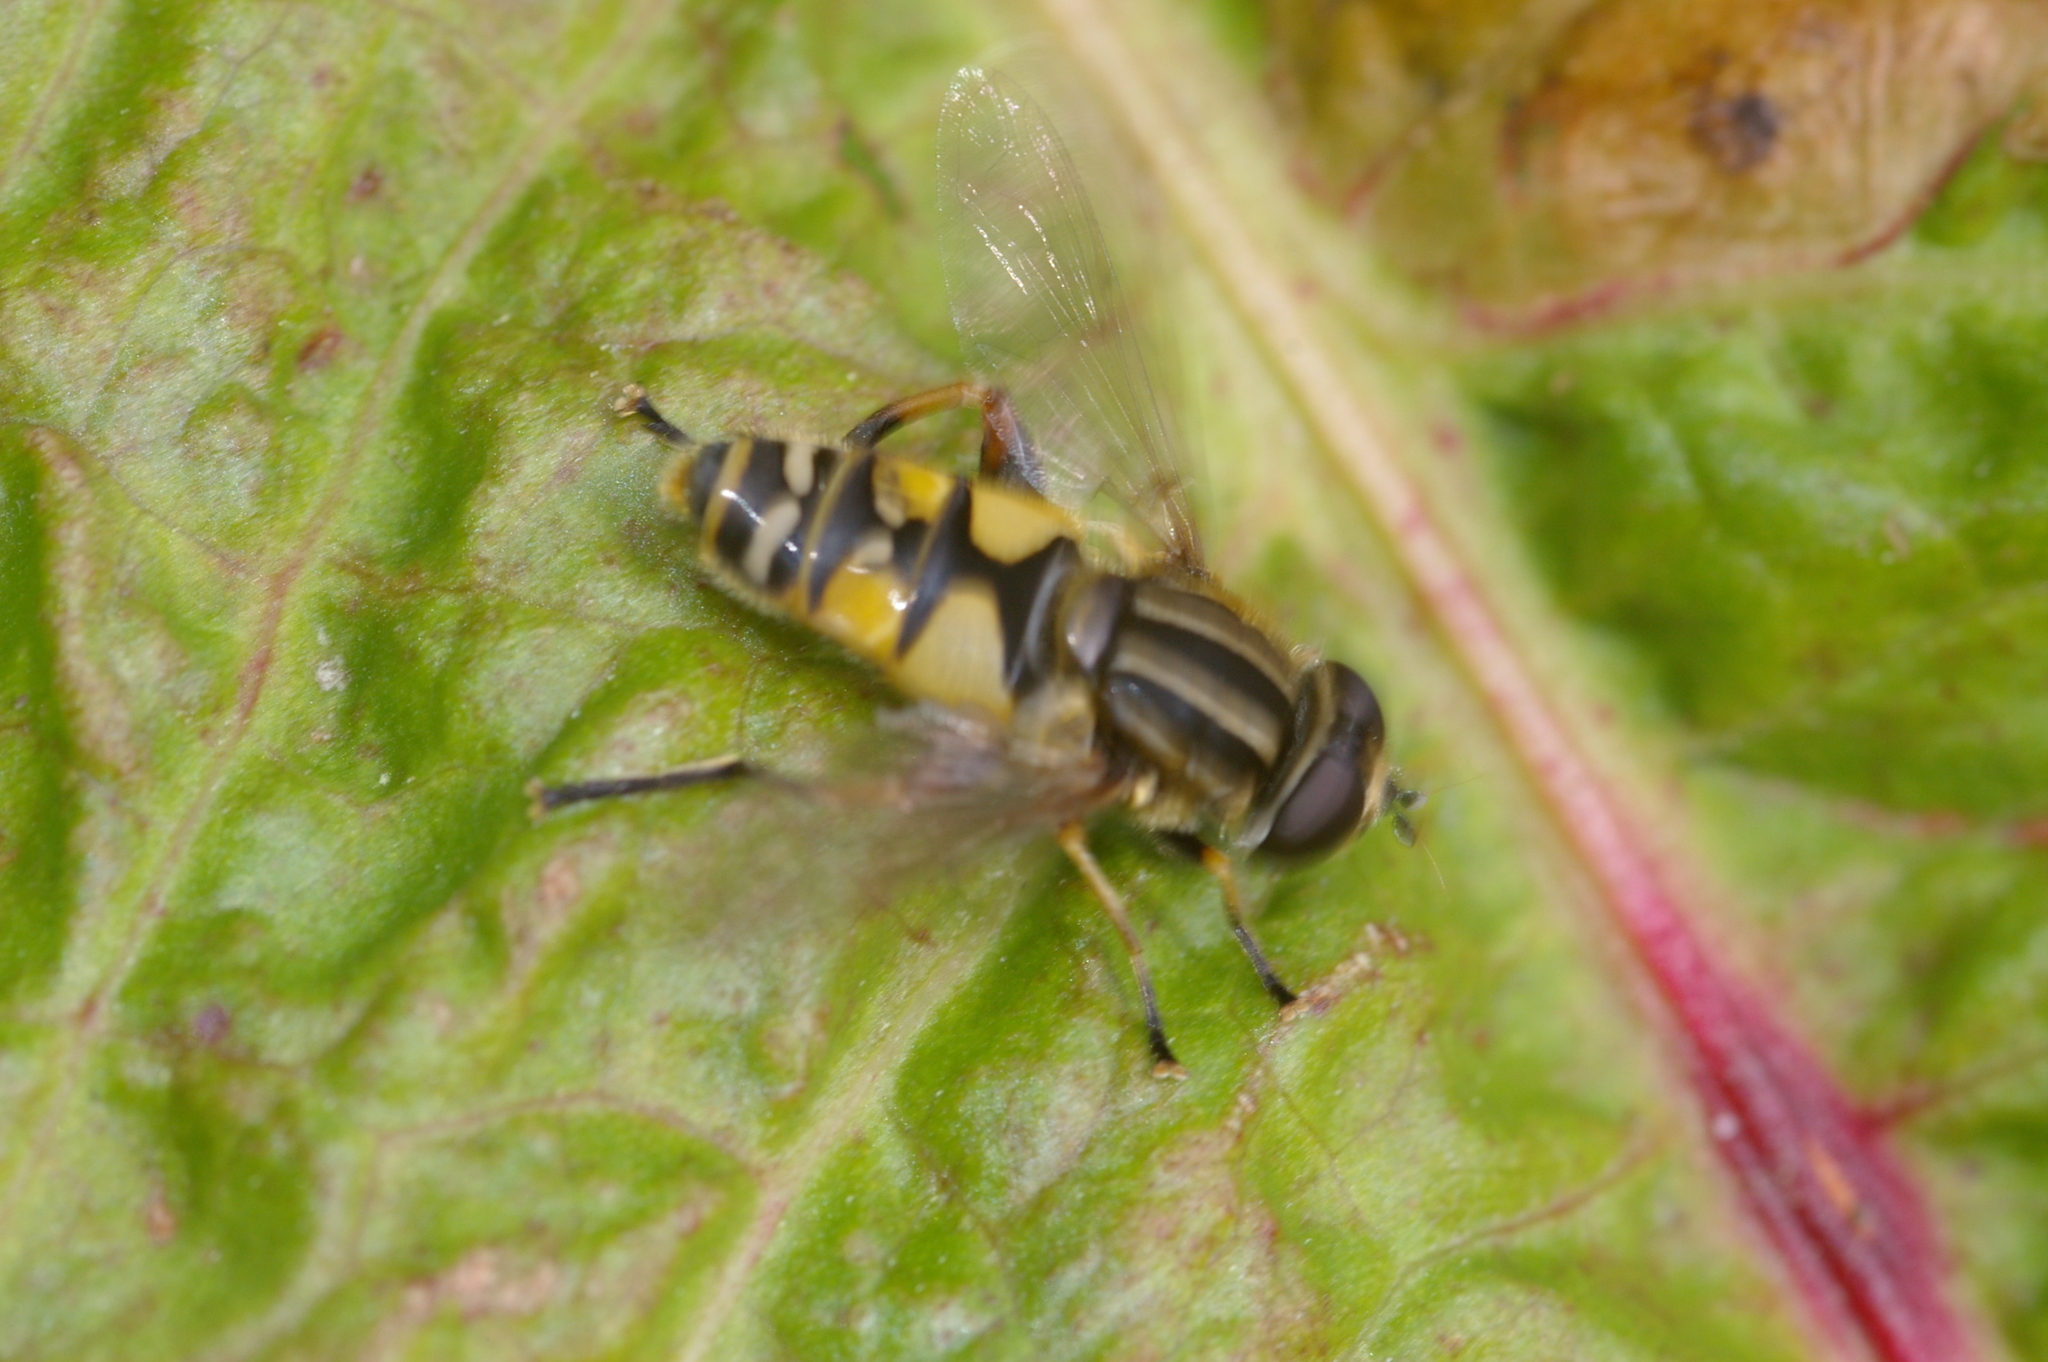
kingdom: Animalia
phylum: Arthropoda
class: Insecta
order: Diptera
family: Syrphidae
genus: Helophilus
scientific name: Helophilus pendulus
